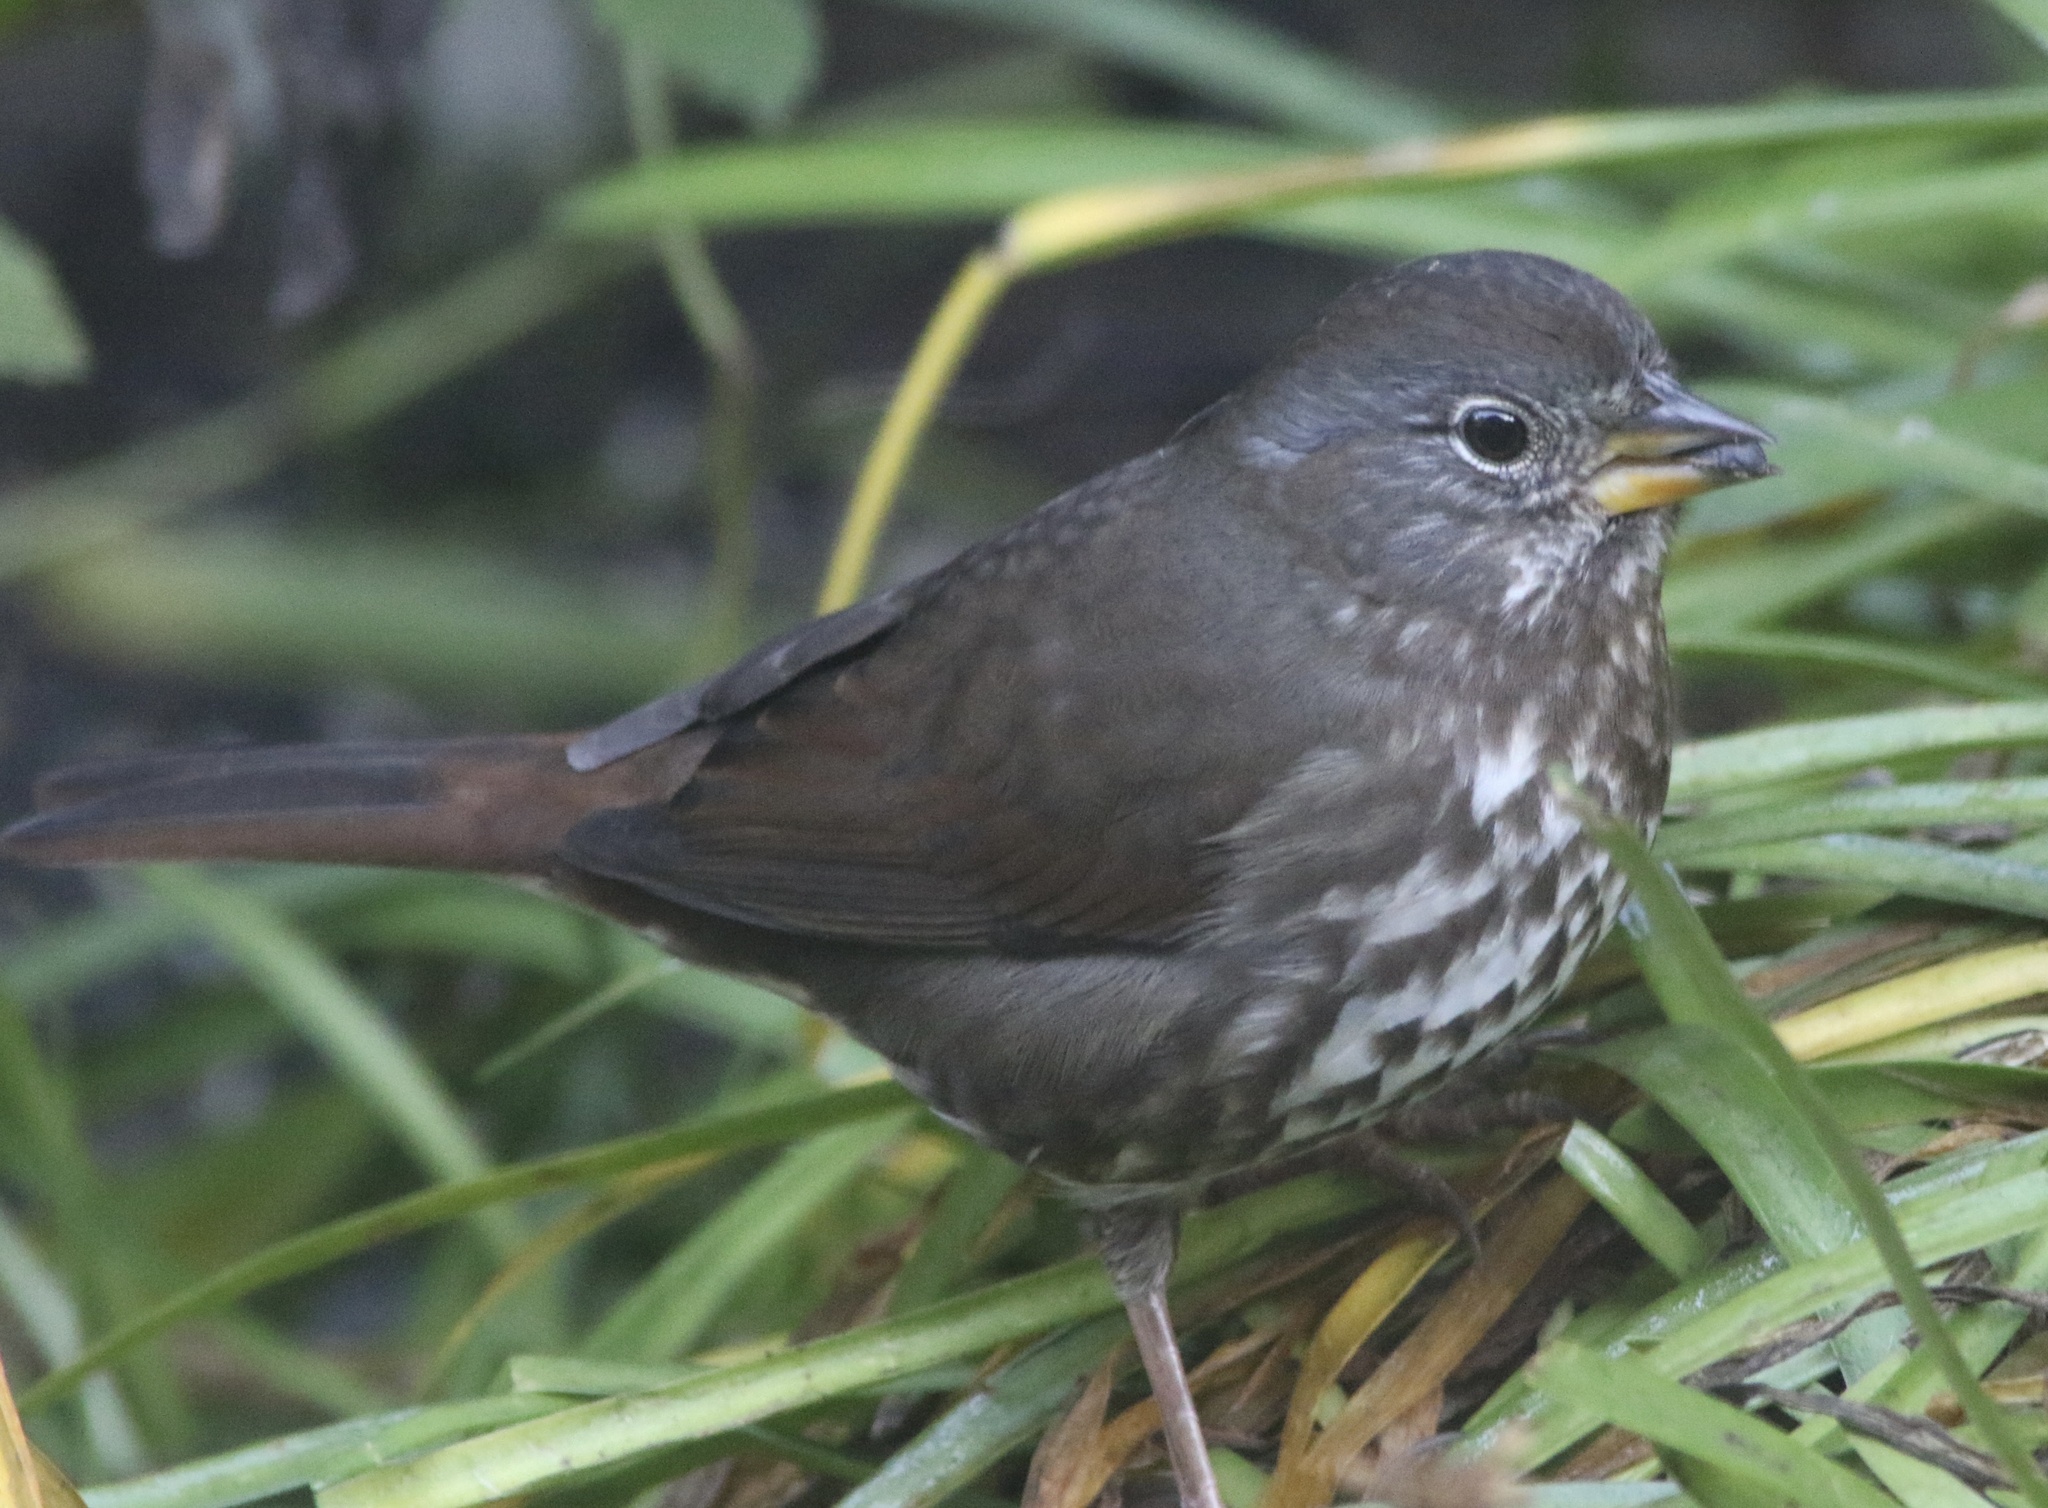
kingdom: Animalia
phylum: Chordata
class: Aves
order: Passeriformes
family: Passerellidae
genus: Passerella
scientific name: Passerella iliaca
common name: Fox sparrow
